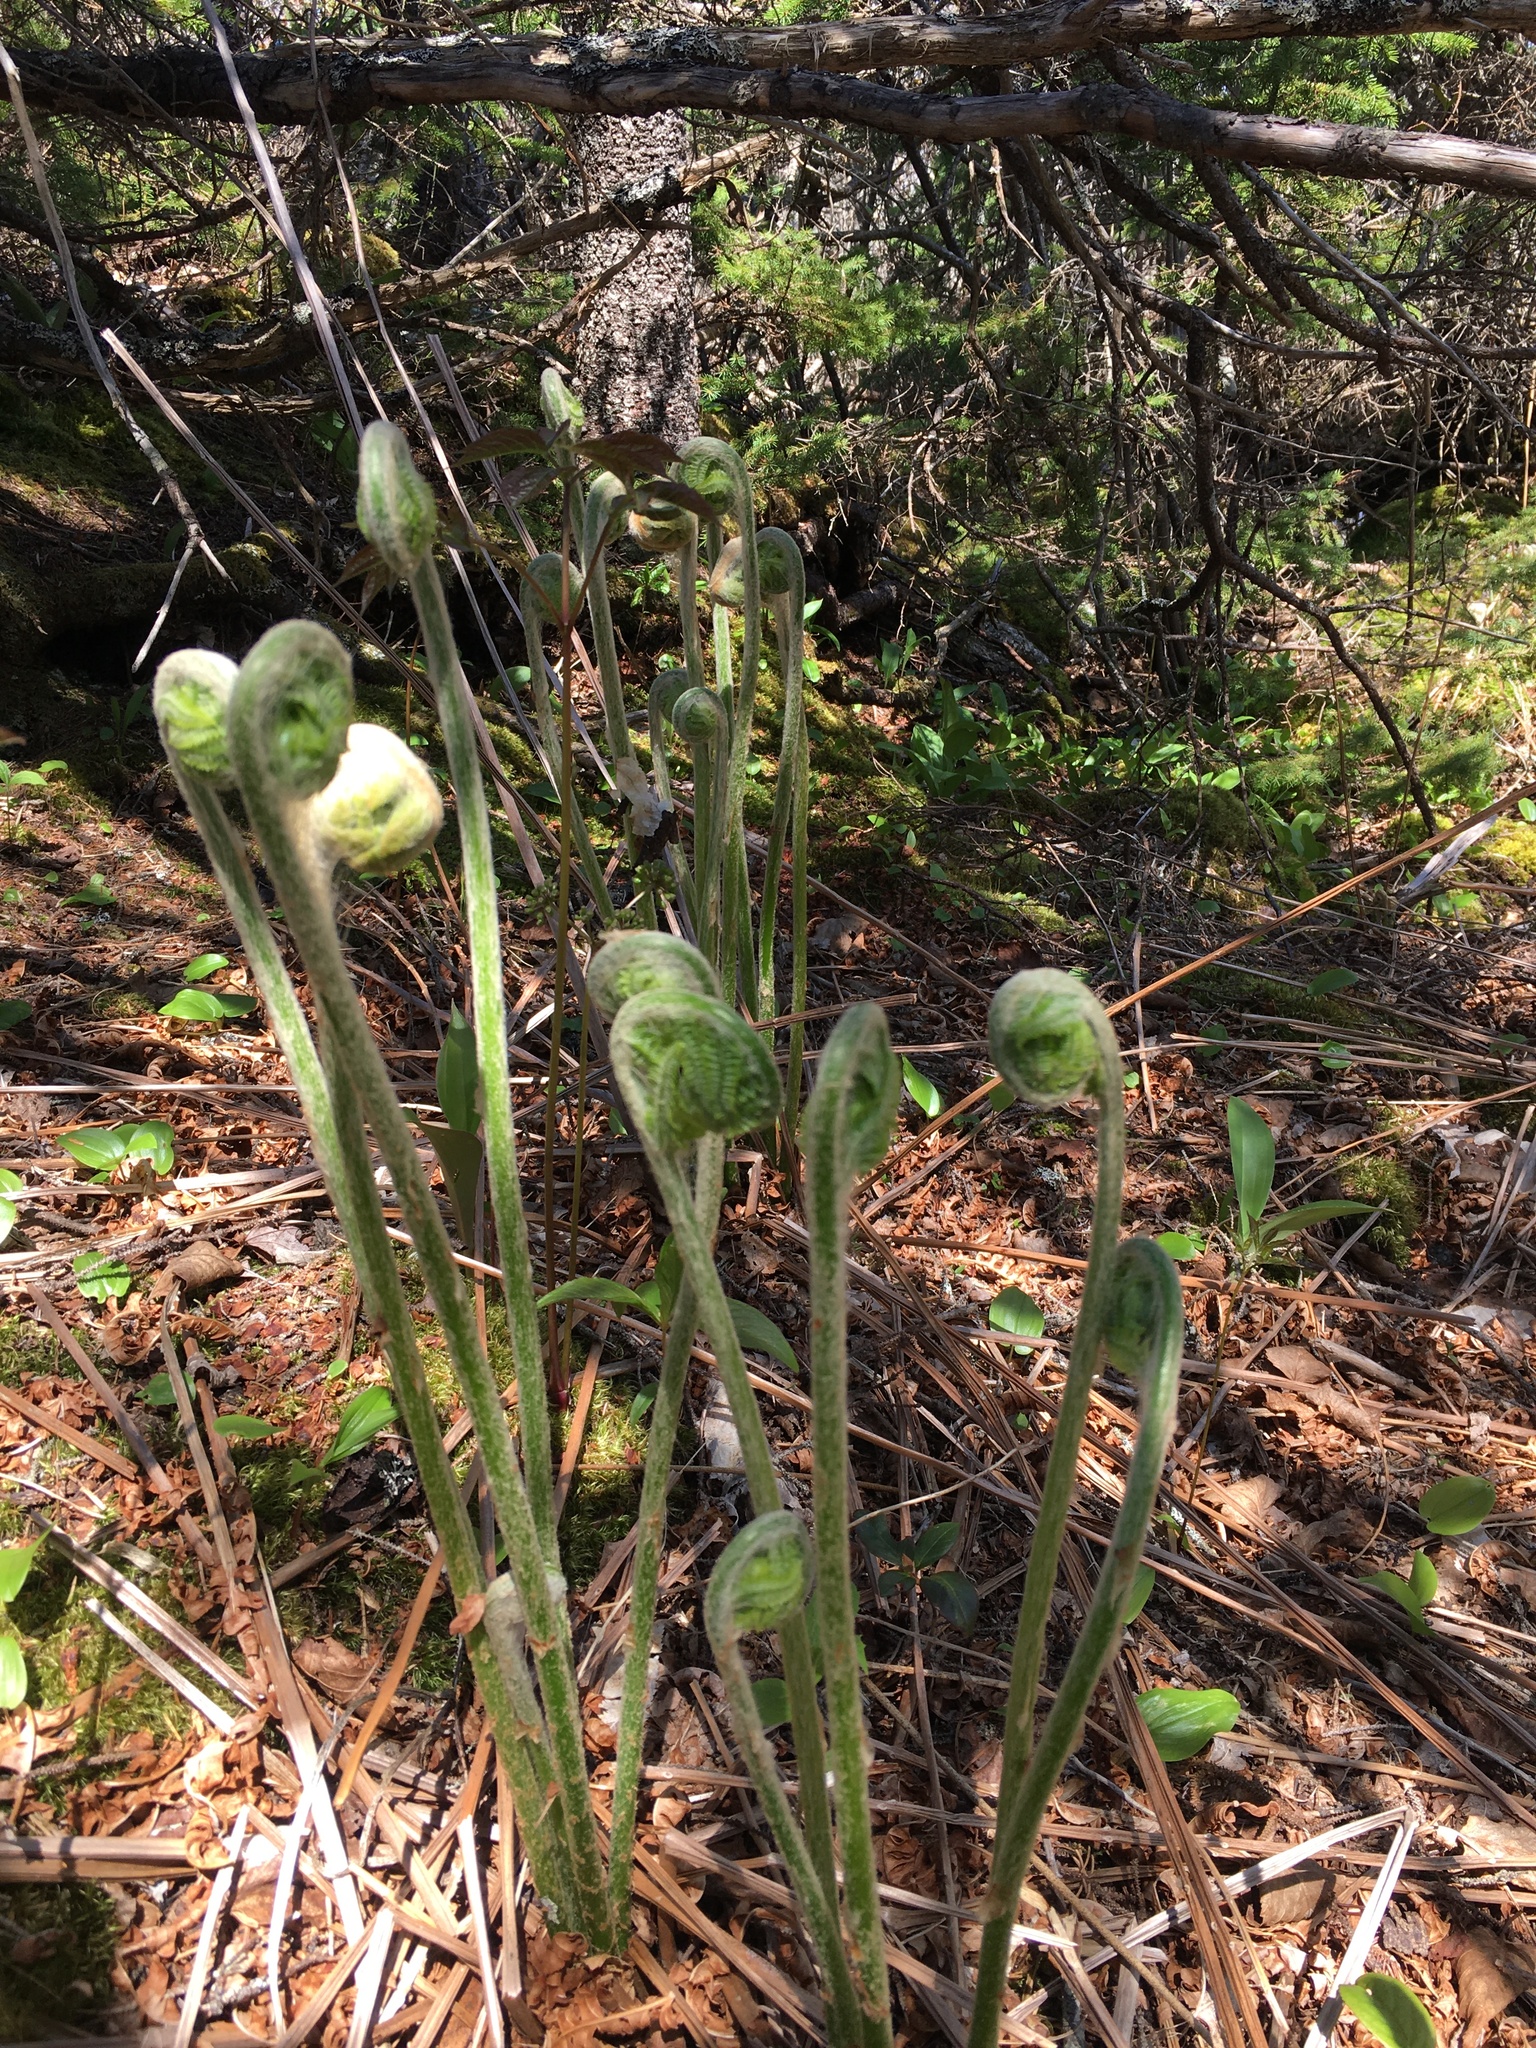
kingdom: Plantae
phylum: Tracheophyta
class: Polypodiopsida
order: Osmundales
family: Osmundaceae
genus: Osmundastrum
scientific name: Osmundastrum cinnamomeum
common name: Cinnamon fern
